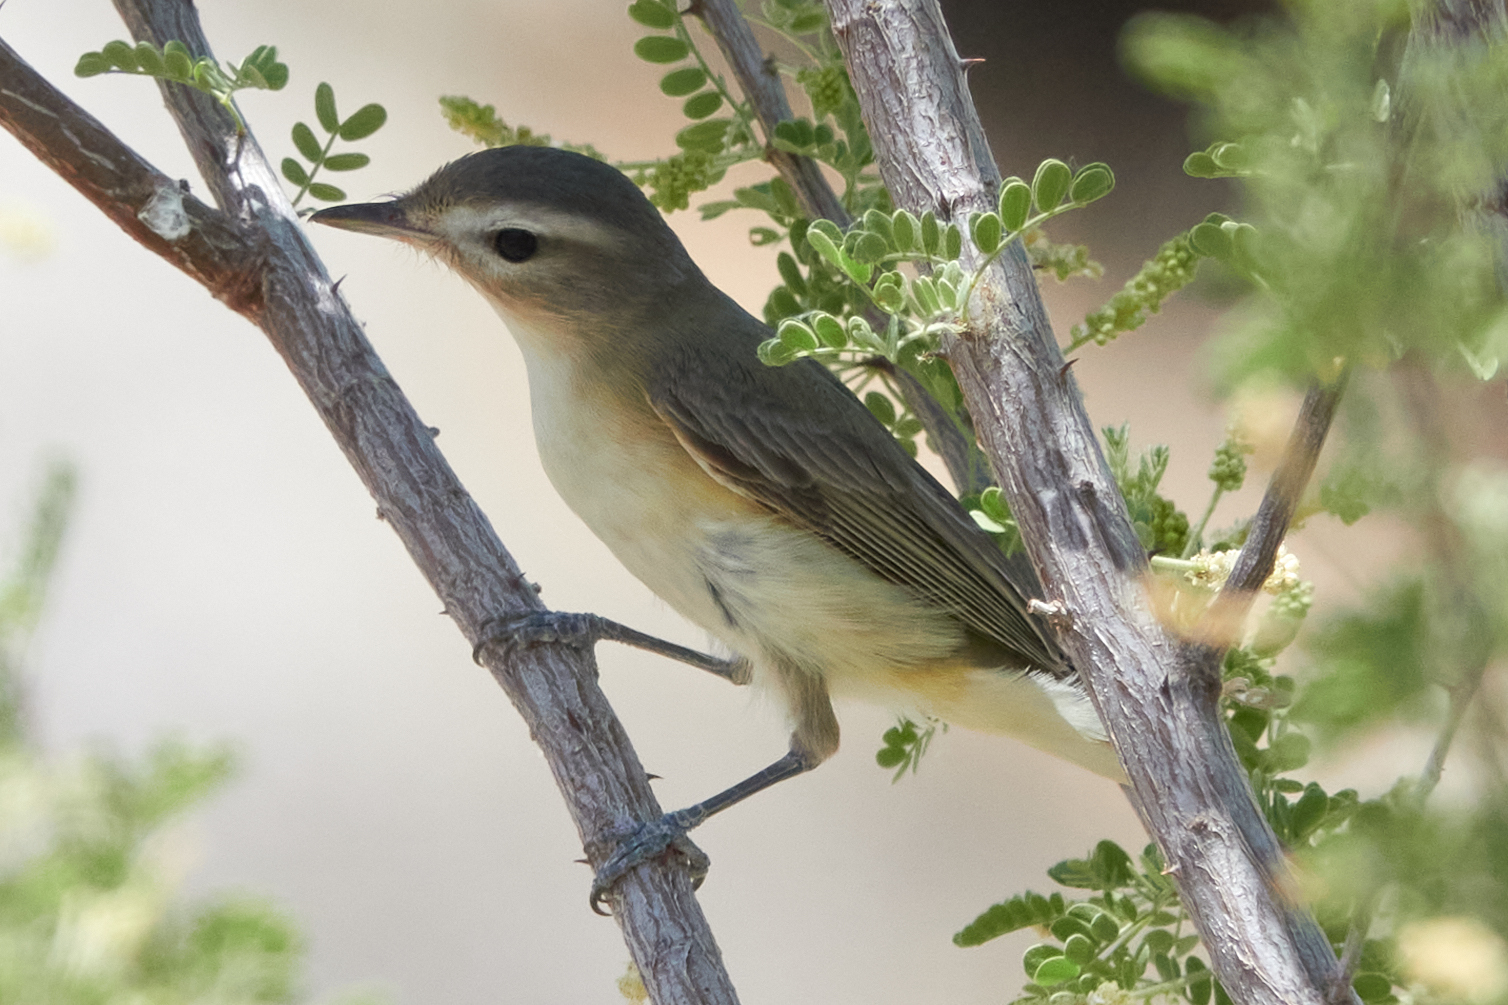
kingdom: Animalia
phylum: Chordata
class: Aves
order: Passeriformes
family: Vireonidae
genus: Vireo
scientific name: Vireo gilvus
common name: Warbling vireo
